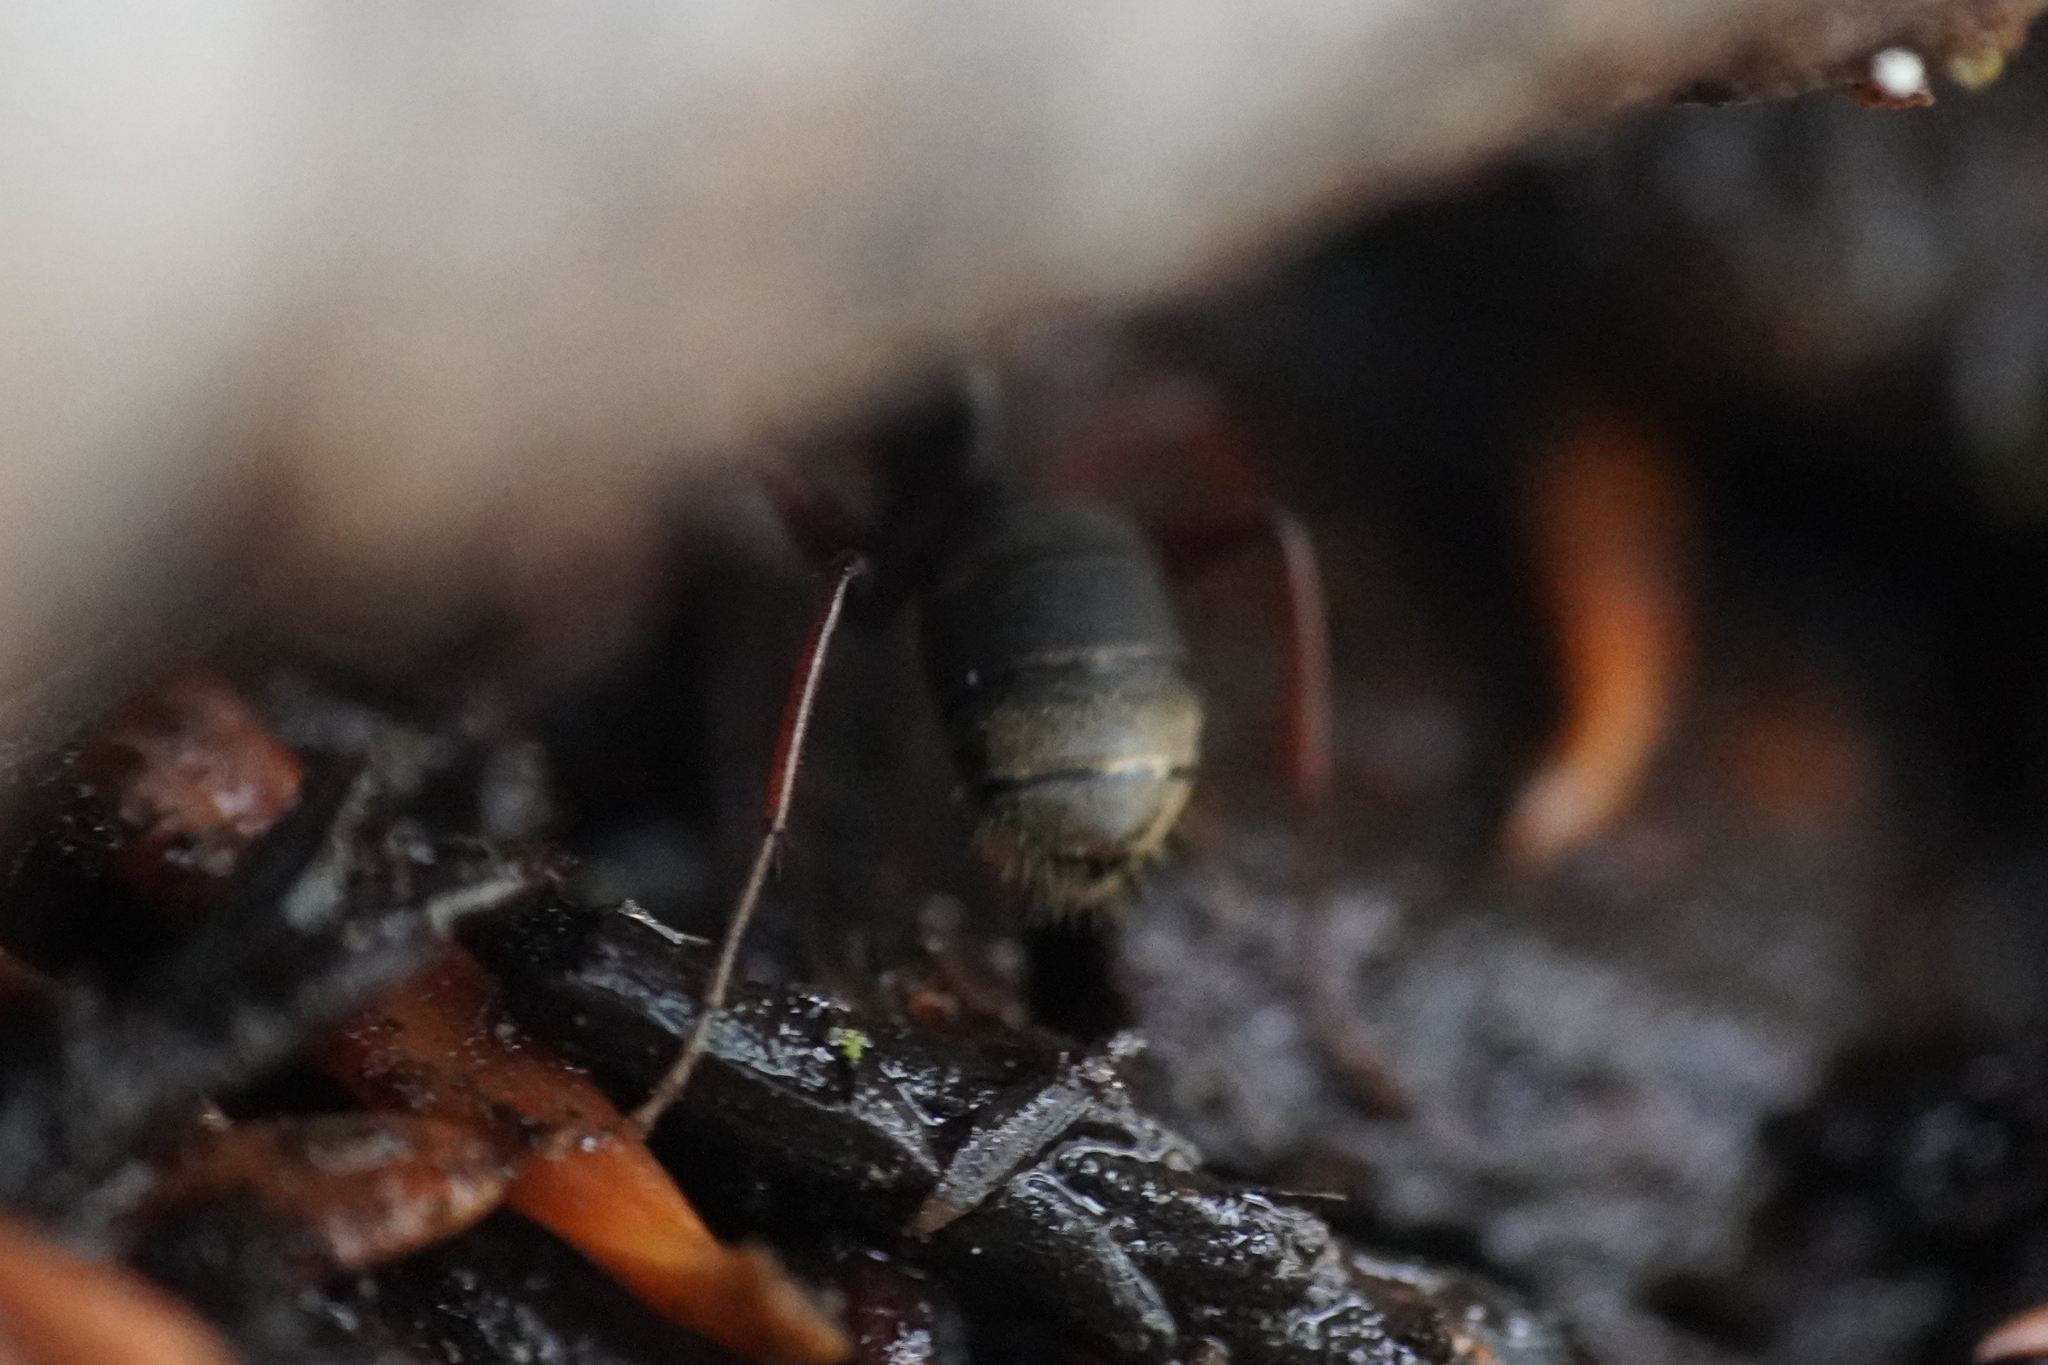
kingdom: Animalia
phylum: Arthropoda
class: Insecta
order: Hymenoptera
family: Formicidae
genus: Camponotus
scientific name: Camponotus modoc
